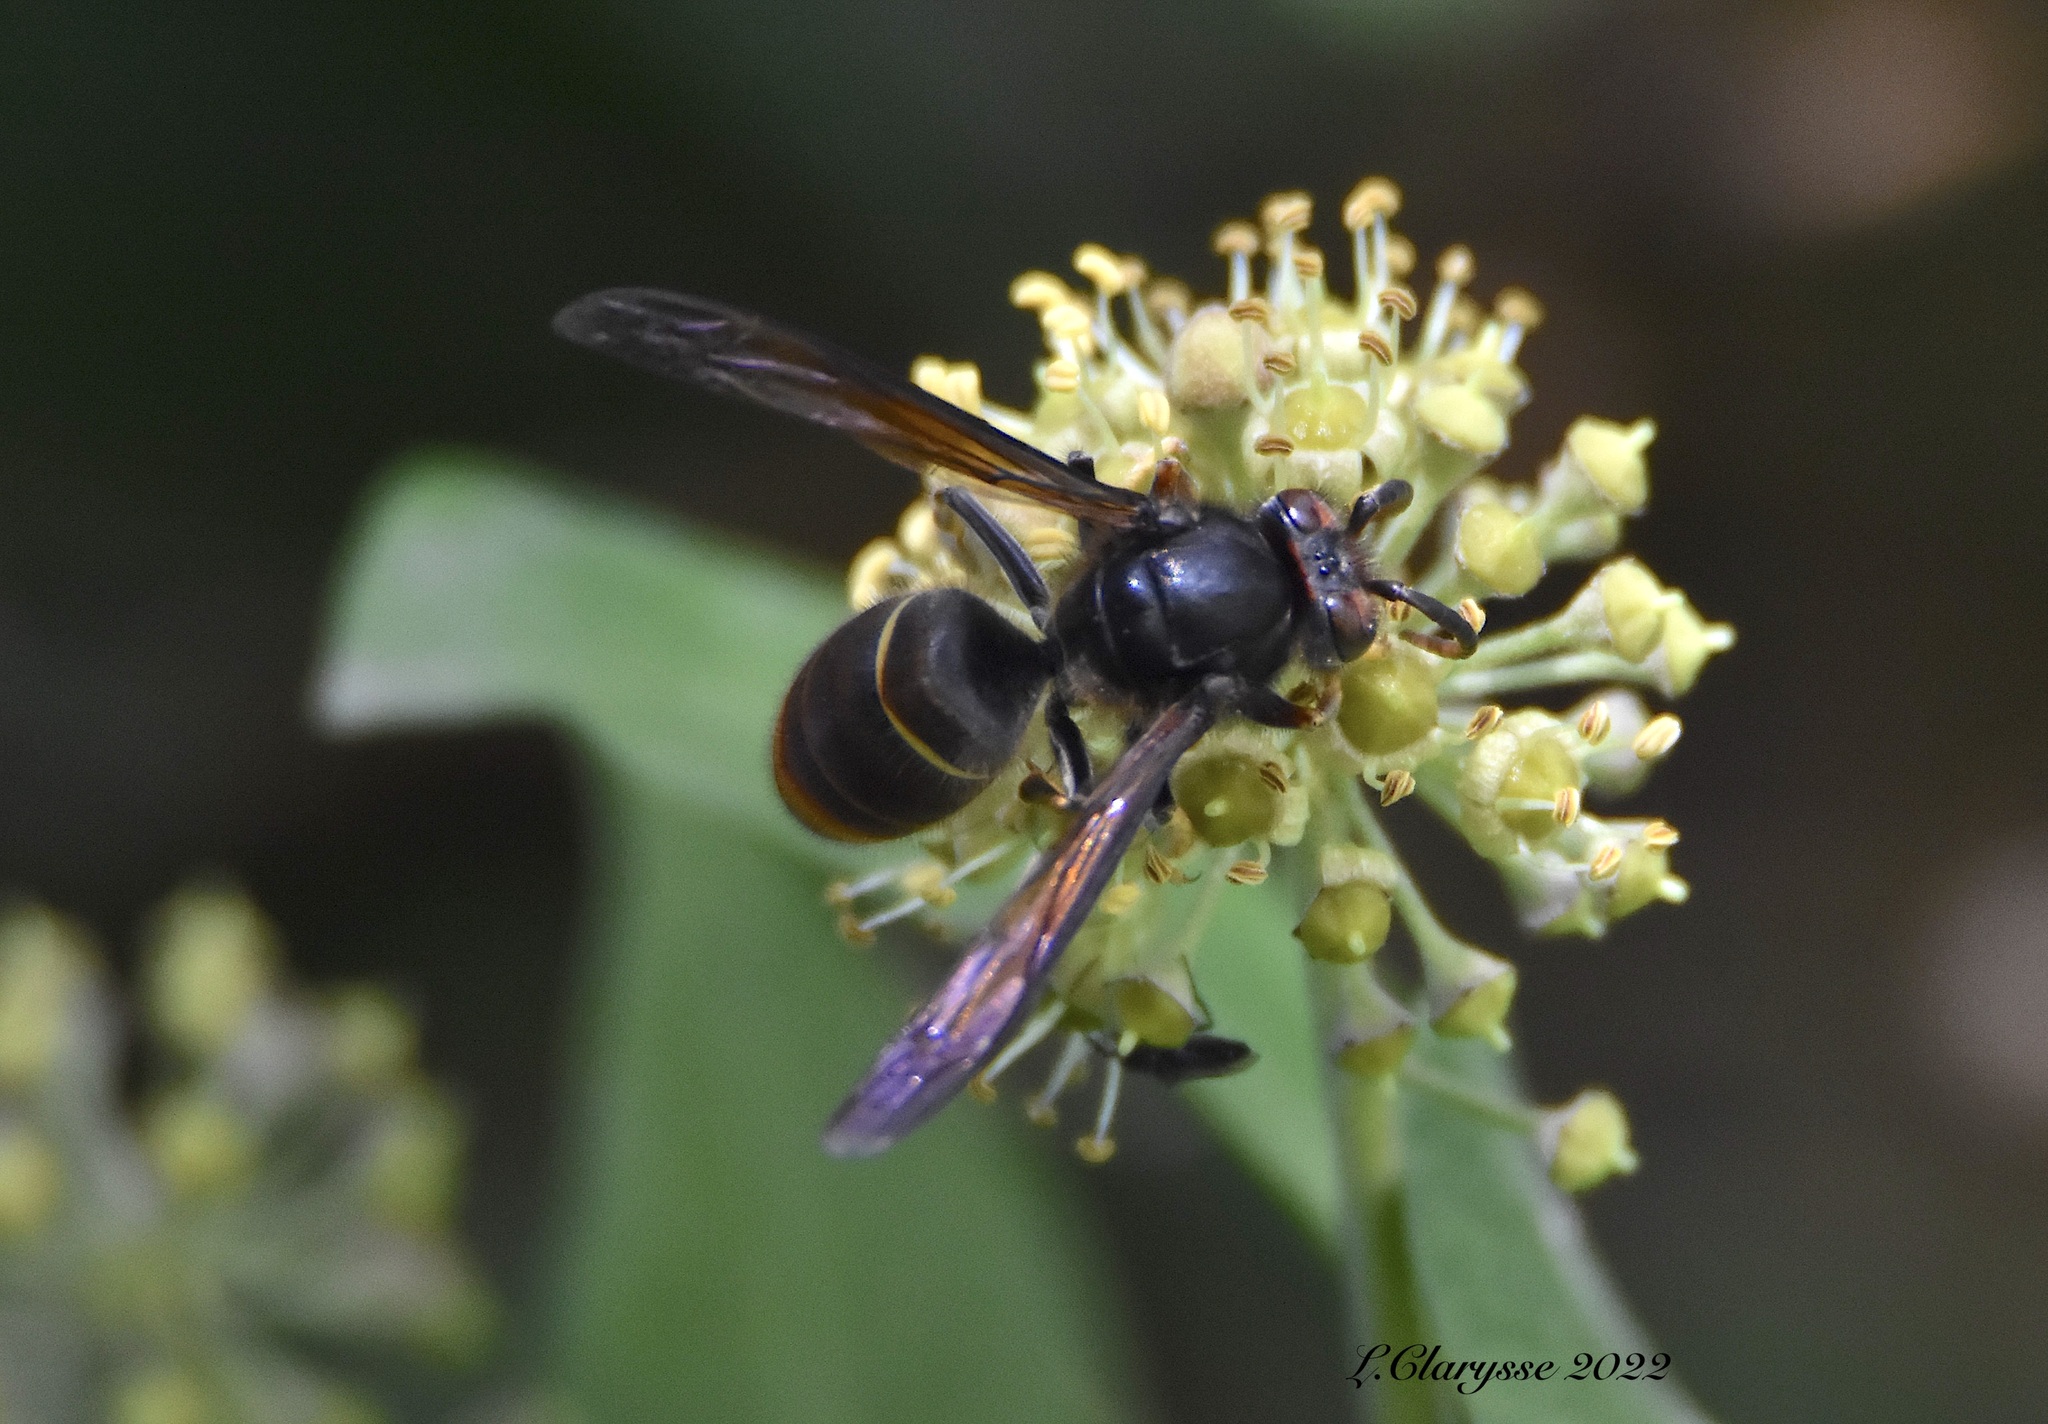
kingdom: Animalia
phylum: Arthropoda
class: Insecta
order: Hymenoptera
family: Vespidae
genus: Vespa
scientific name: Vespa velutina
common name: Asian hornet
